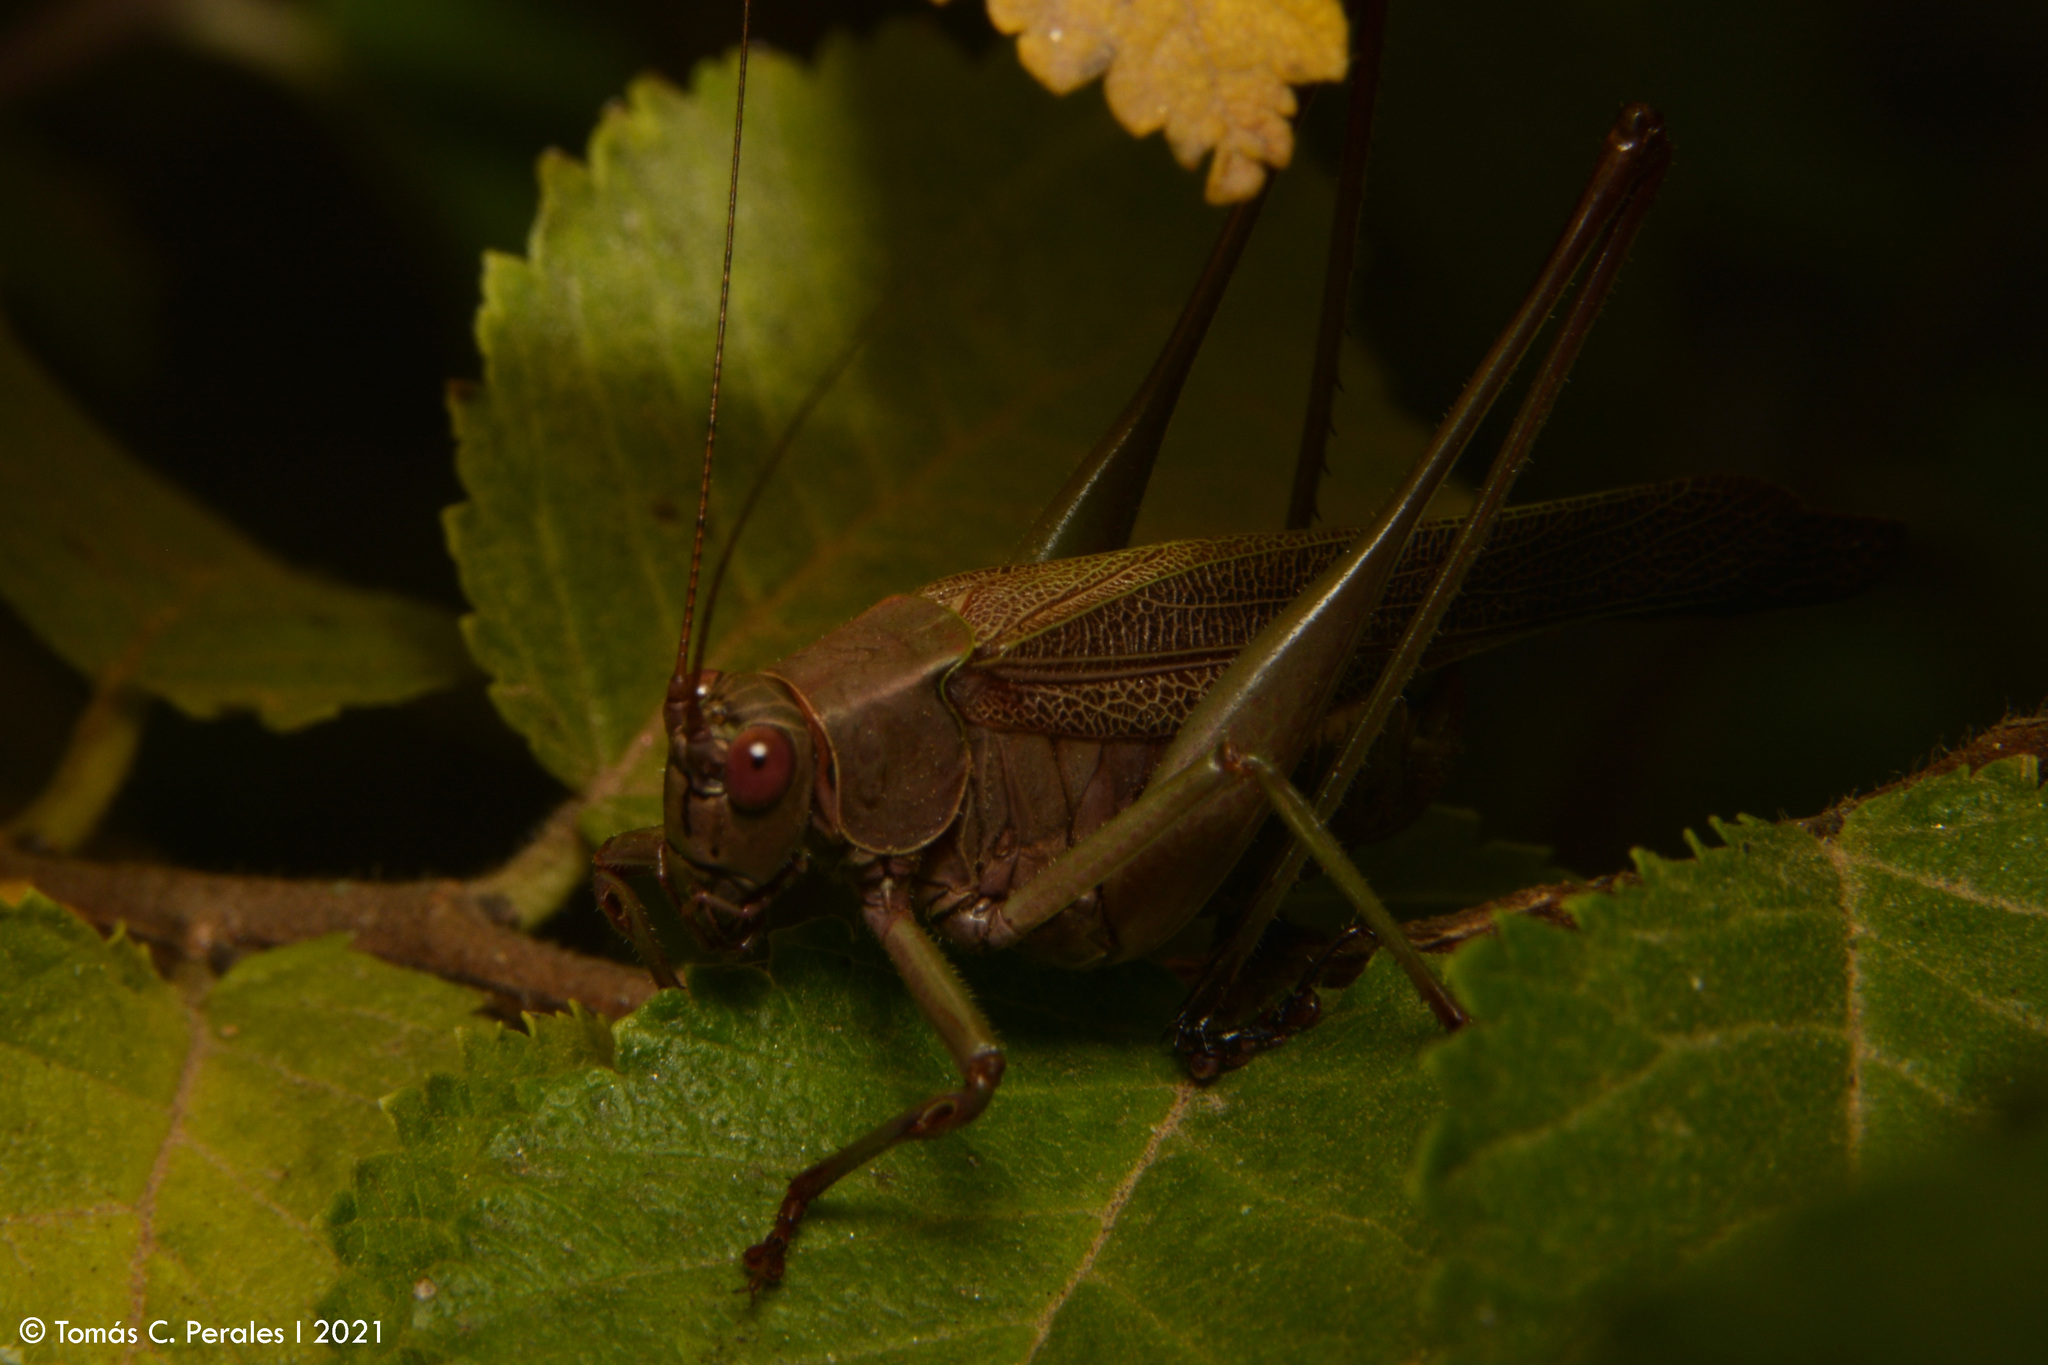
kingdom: Animalia
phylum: Arthropoda
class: Insecta
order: Orthoptera
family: Tettigoniidae
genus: Enthephippion
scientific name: Enthephippion borellii
